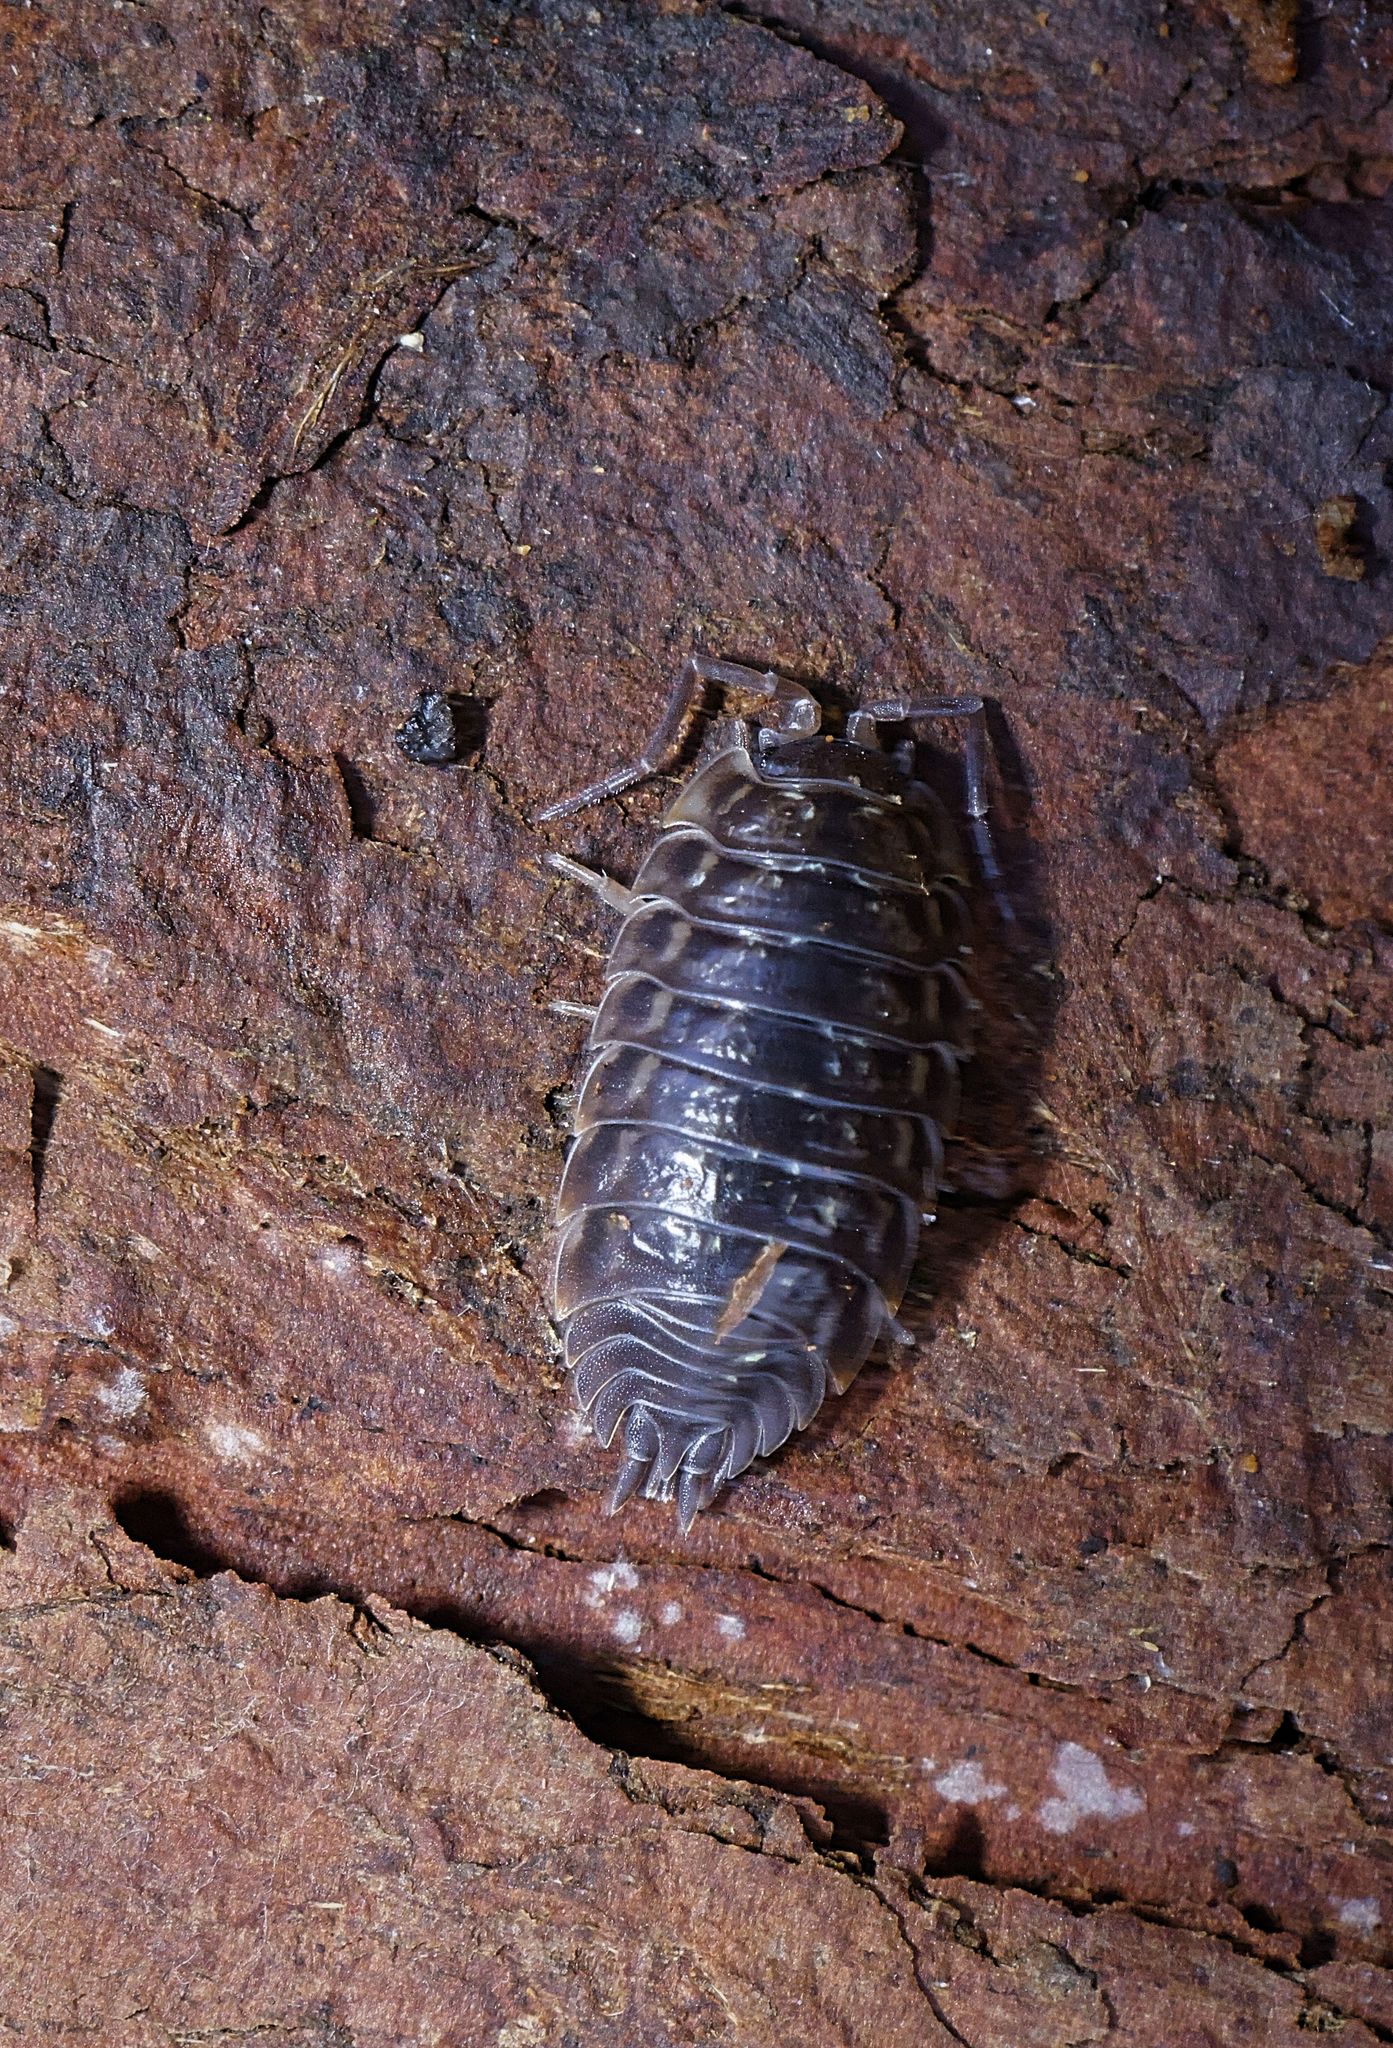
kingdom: Animalia
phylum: Arthropoda
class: Malacostraca
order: Isopoda
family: Oniscidae
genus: Oniscus
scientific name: Oniscus asellus
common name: Common shiny woodlouse
